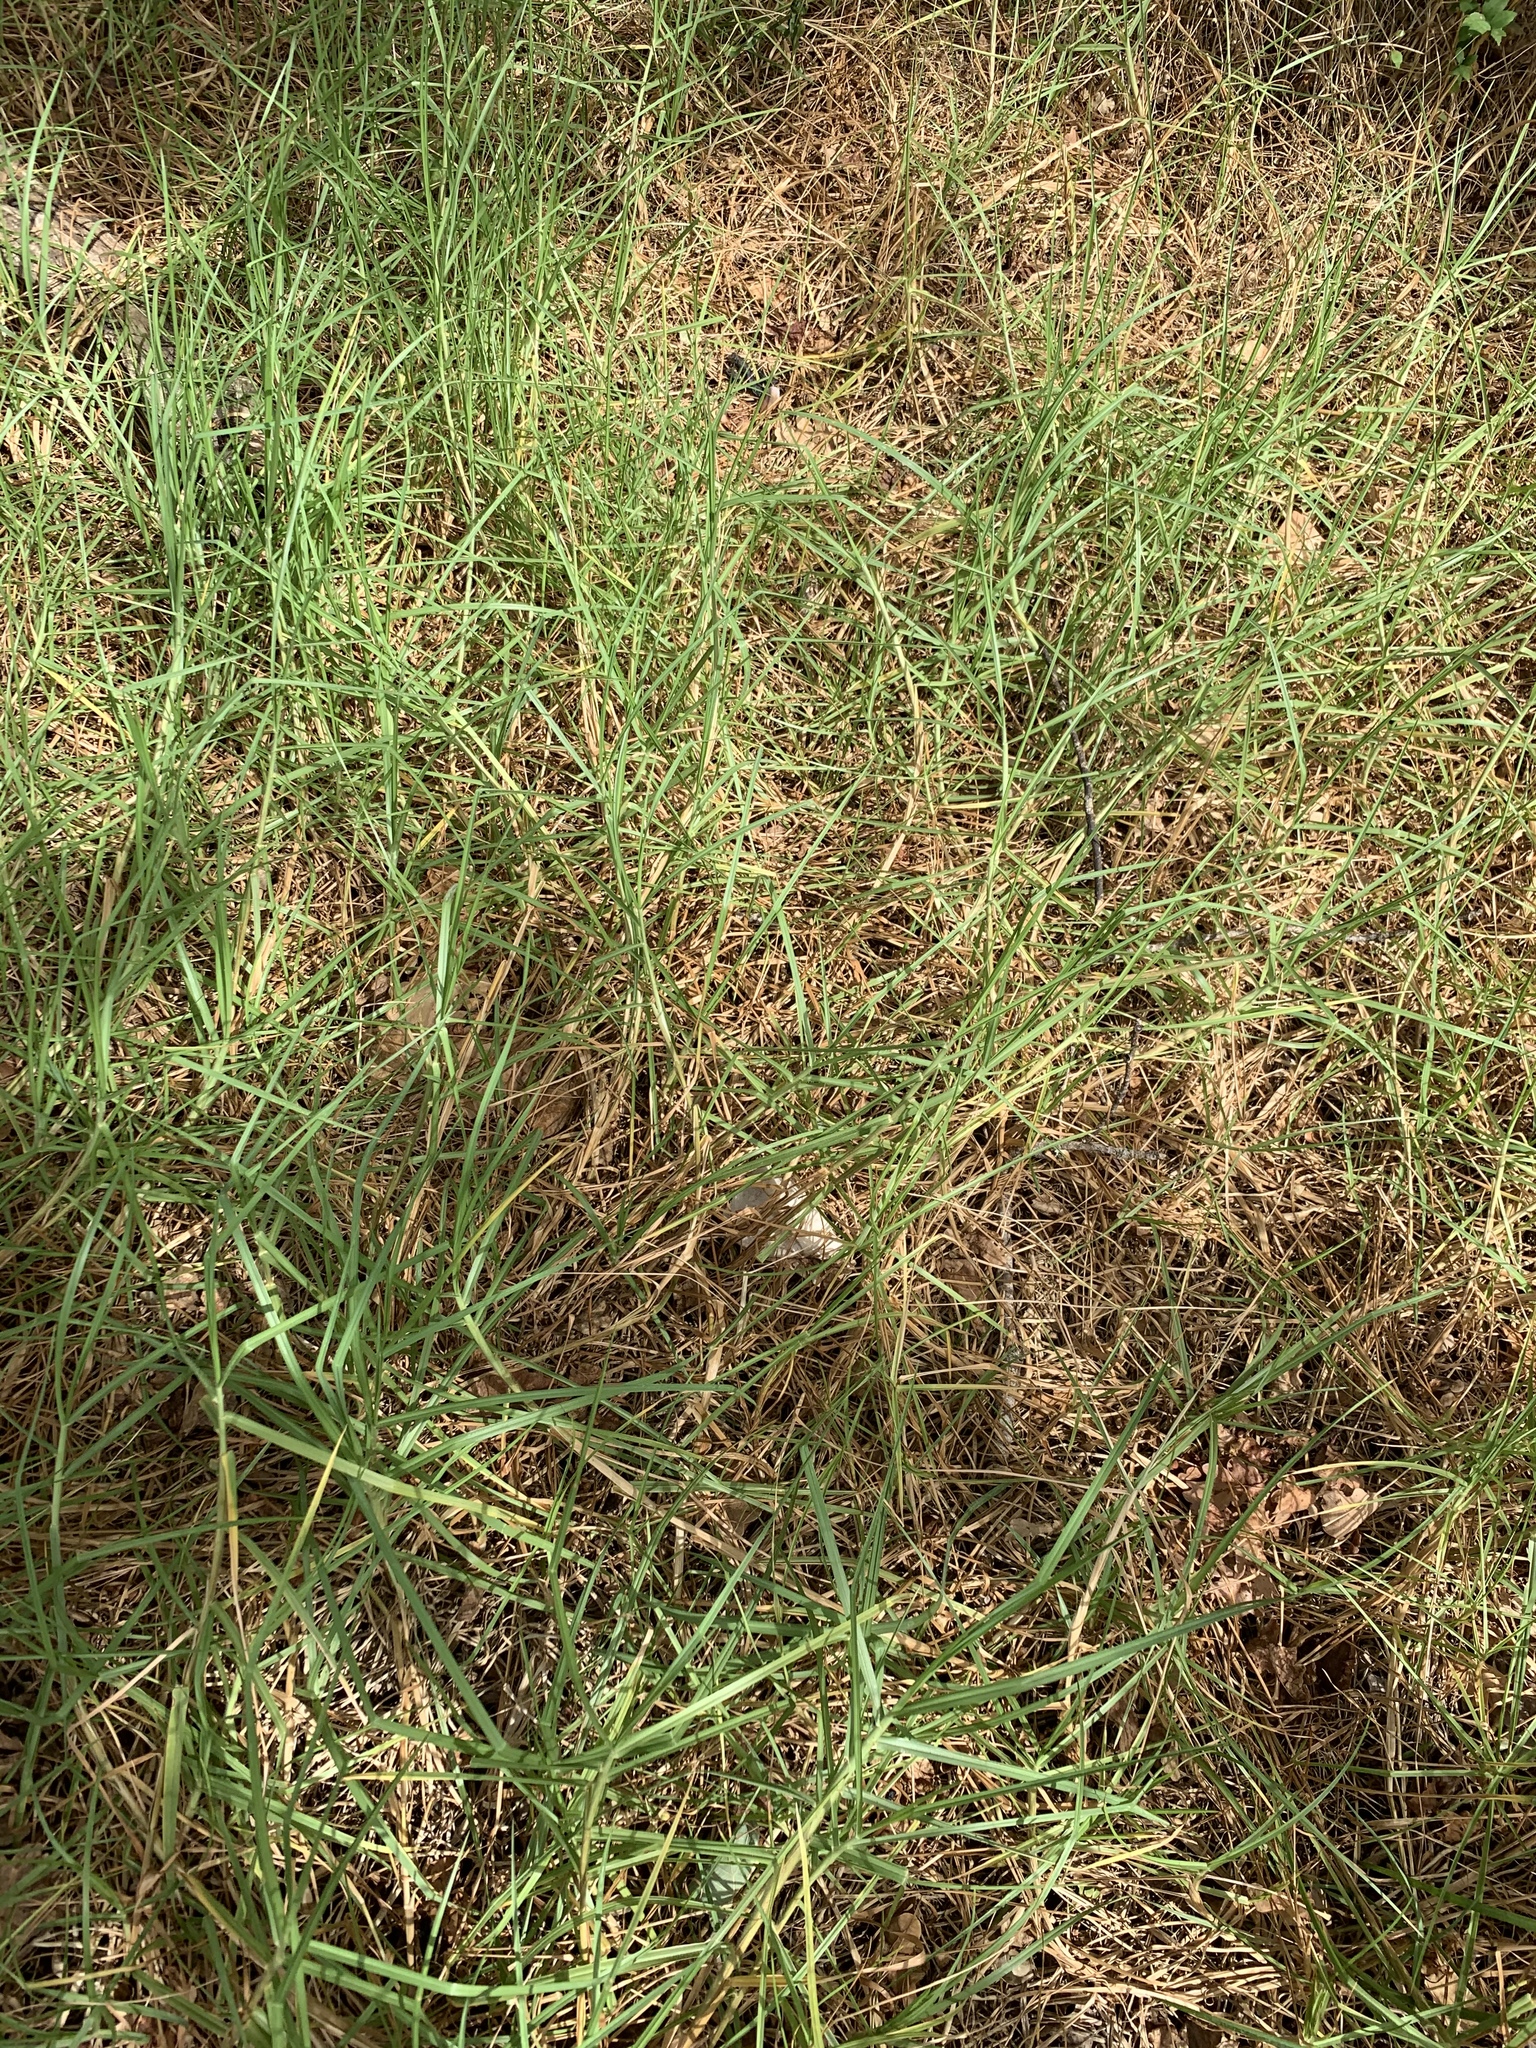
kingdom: Plantae
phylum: Tracheophyta
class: Liliopsida
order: Poales
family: Poaceae
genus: Cenchrus
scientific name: Cenchrus clandestinus
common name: Kikuyugrass
